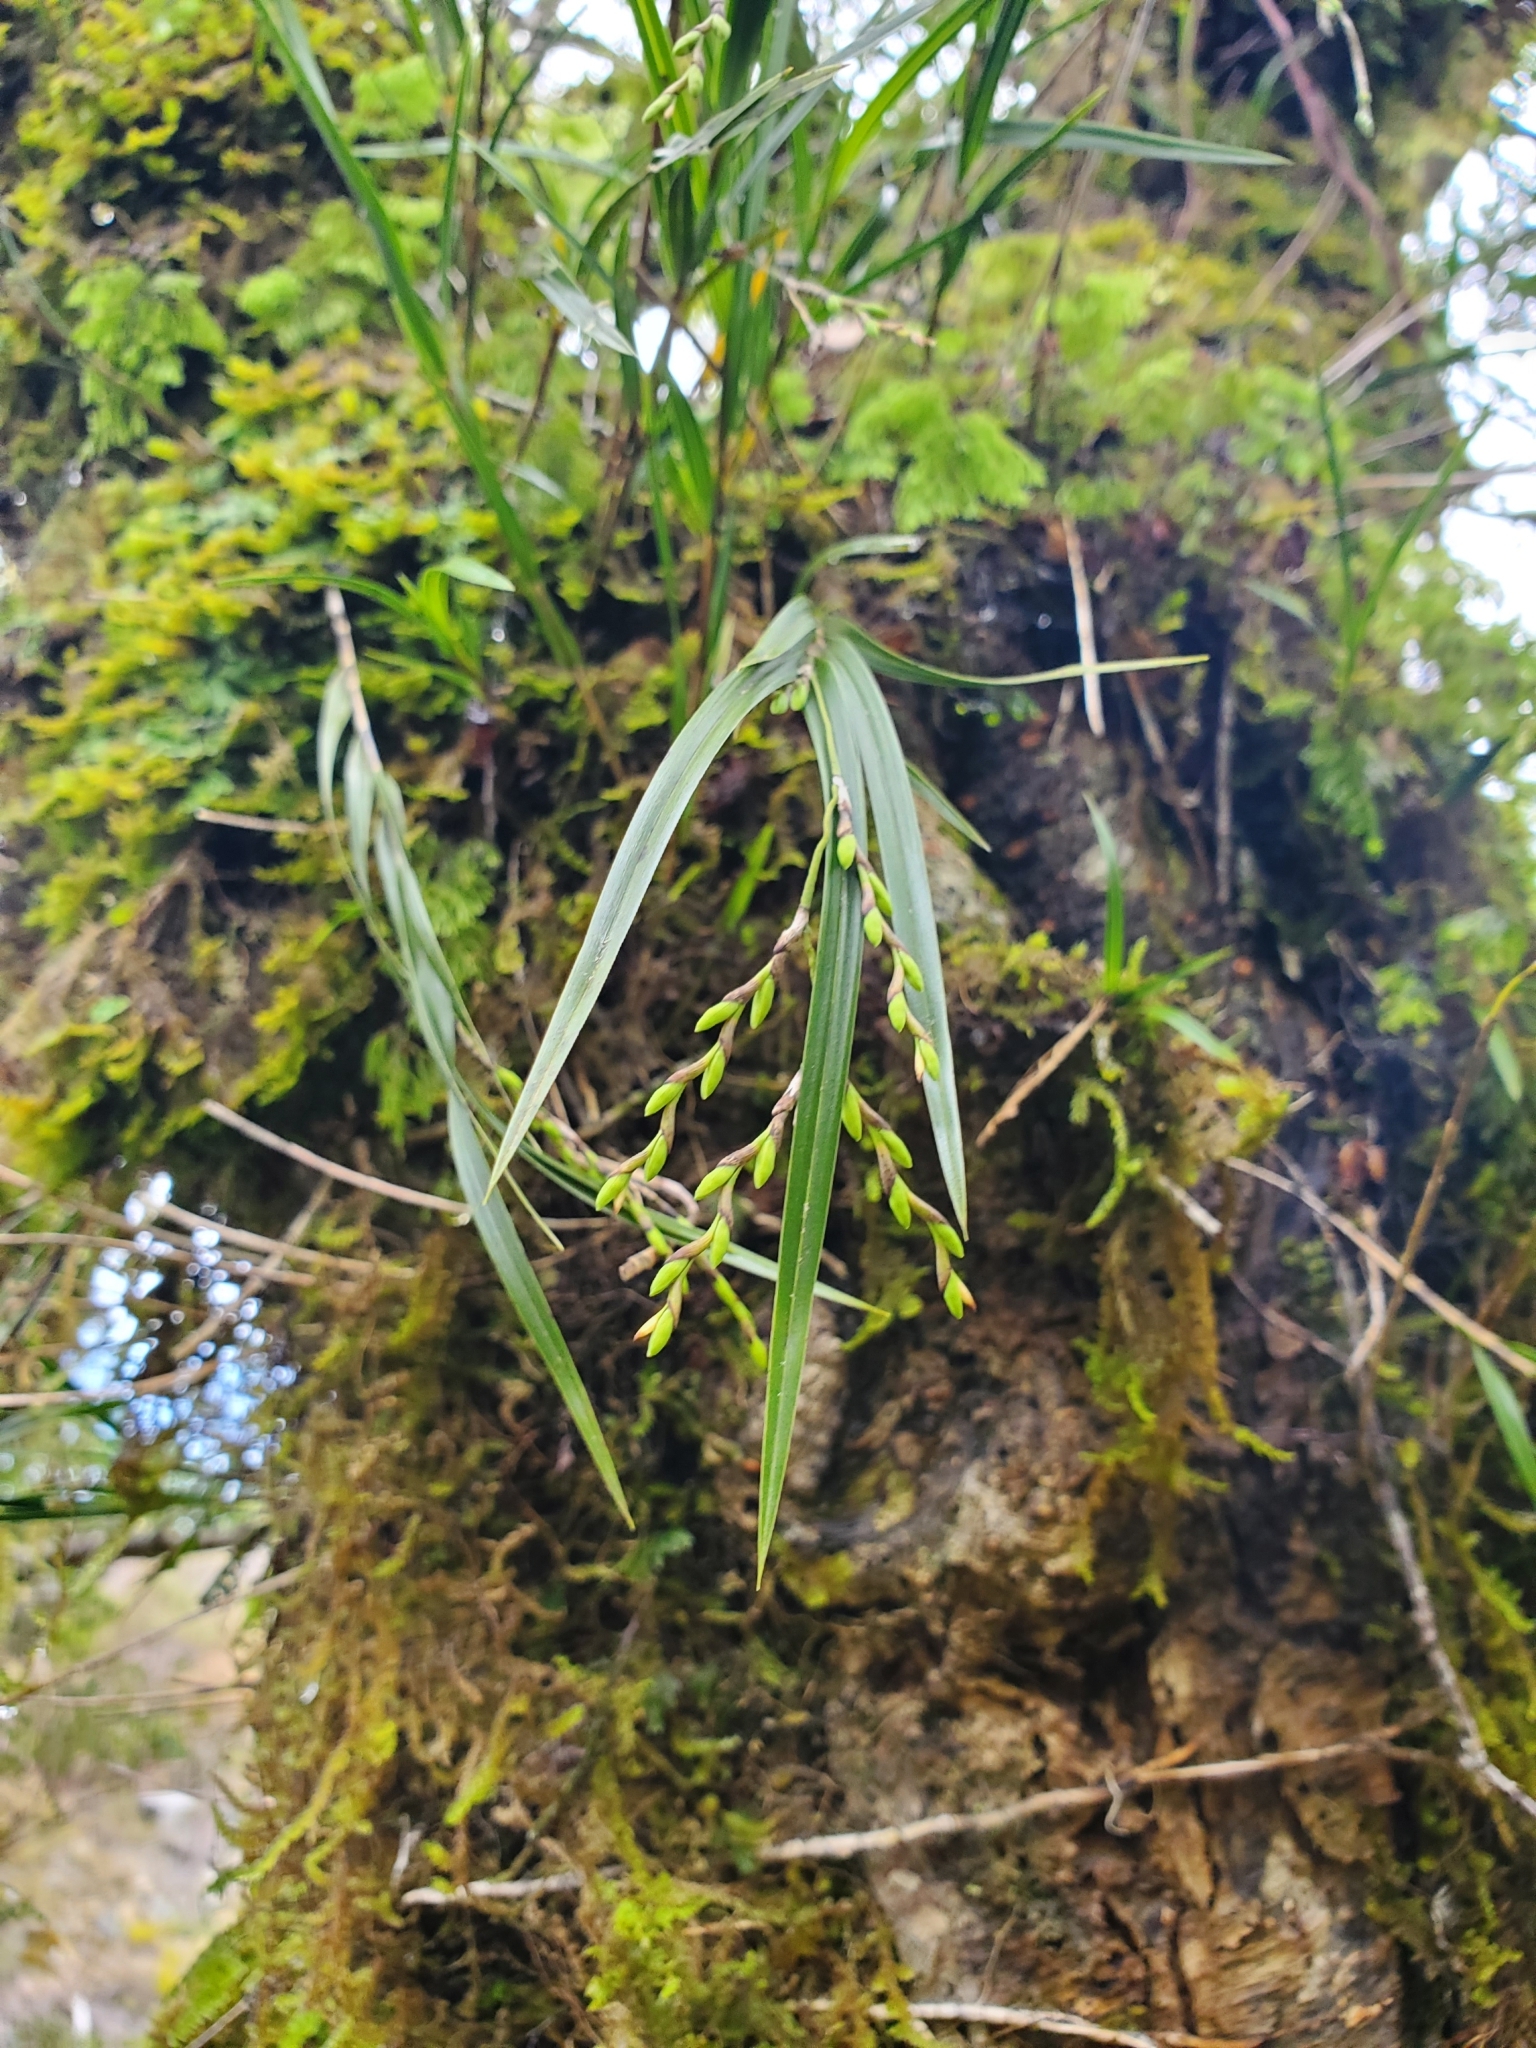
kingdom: Plantae
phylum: Tracheophyta
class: Liliopsida
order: Asparagales
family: Orchidaceae
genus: Earina
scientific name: Earina mucronata
